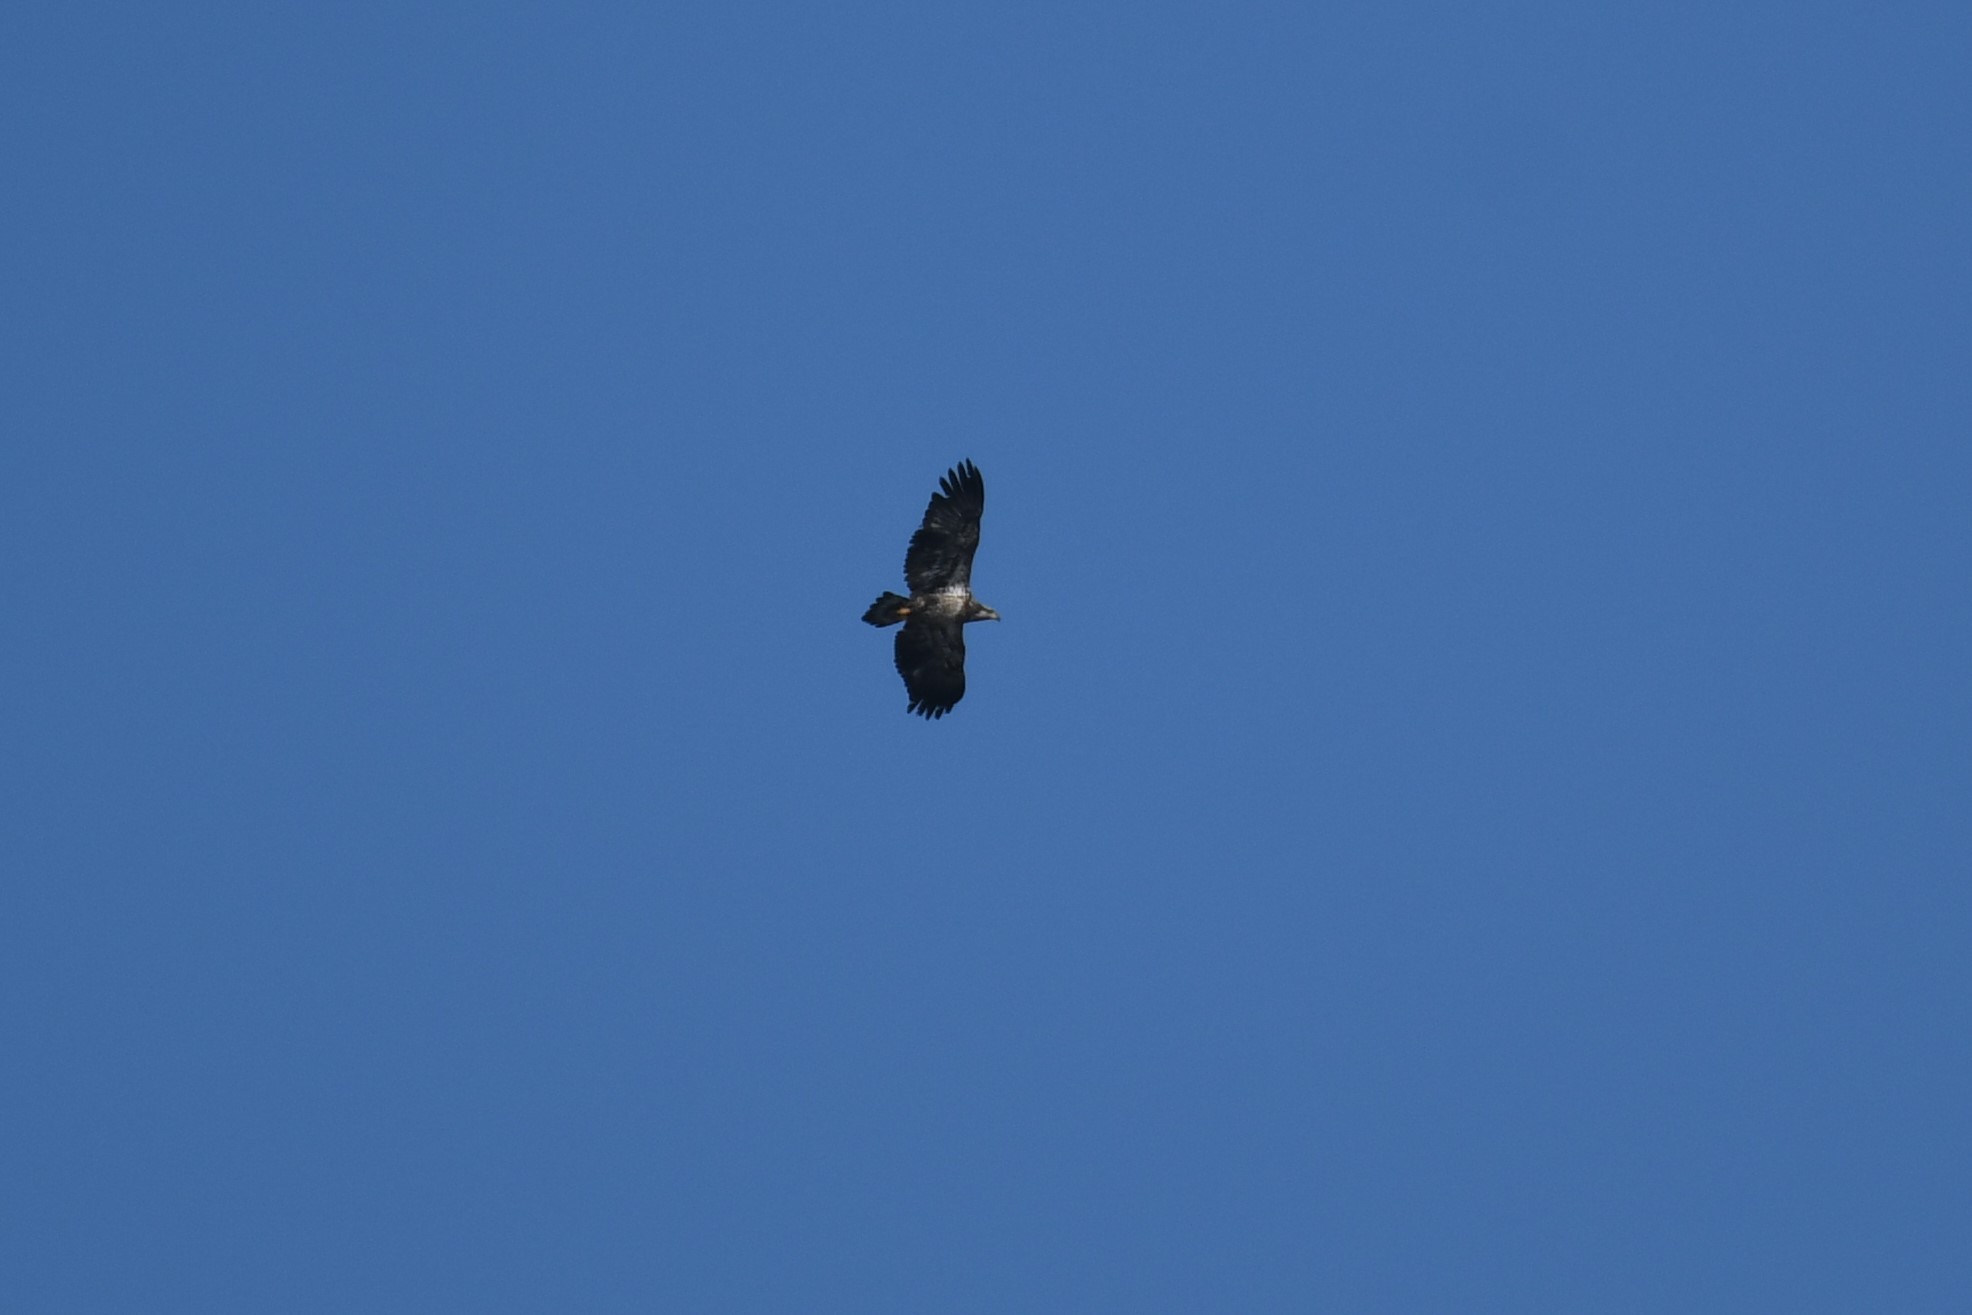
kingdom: Animalia
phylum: Chordata
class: Aves
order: Accipitriformes
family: Accipitridae
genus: Haliaeetus
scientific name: Haliaeetus leucocephalus
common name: Bald eagle
